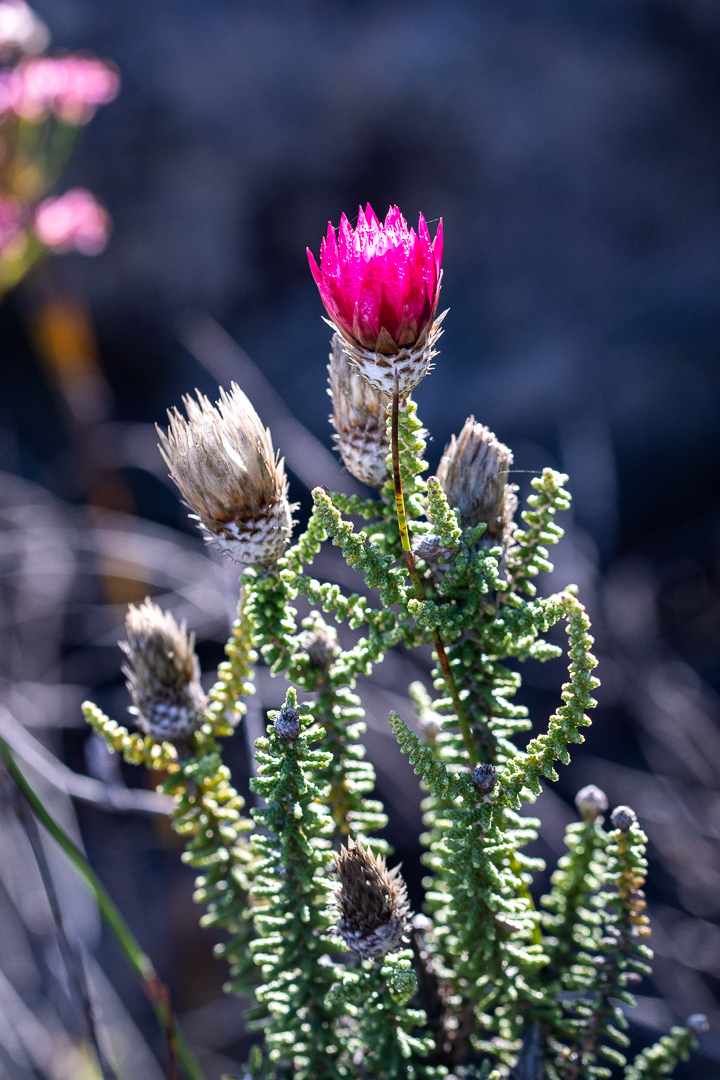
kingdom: Plantae
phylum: Tracheophyta
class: Magnoliopsida
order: Asterales
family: Asteraceae
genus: Phaenocoma
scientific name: Phaenocoma prolifera
